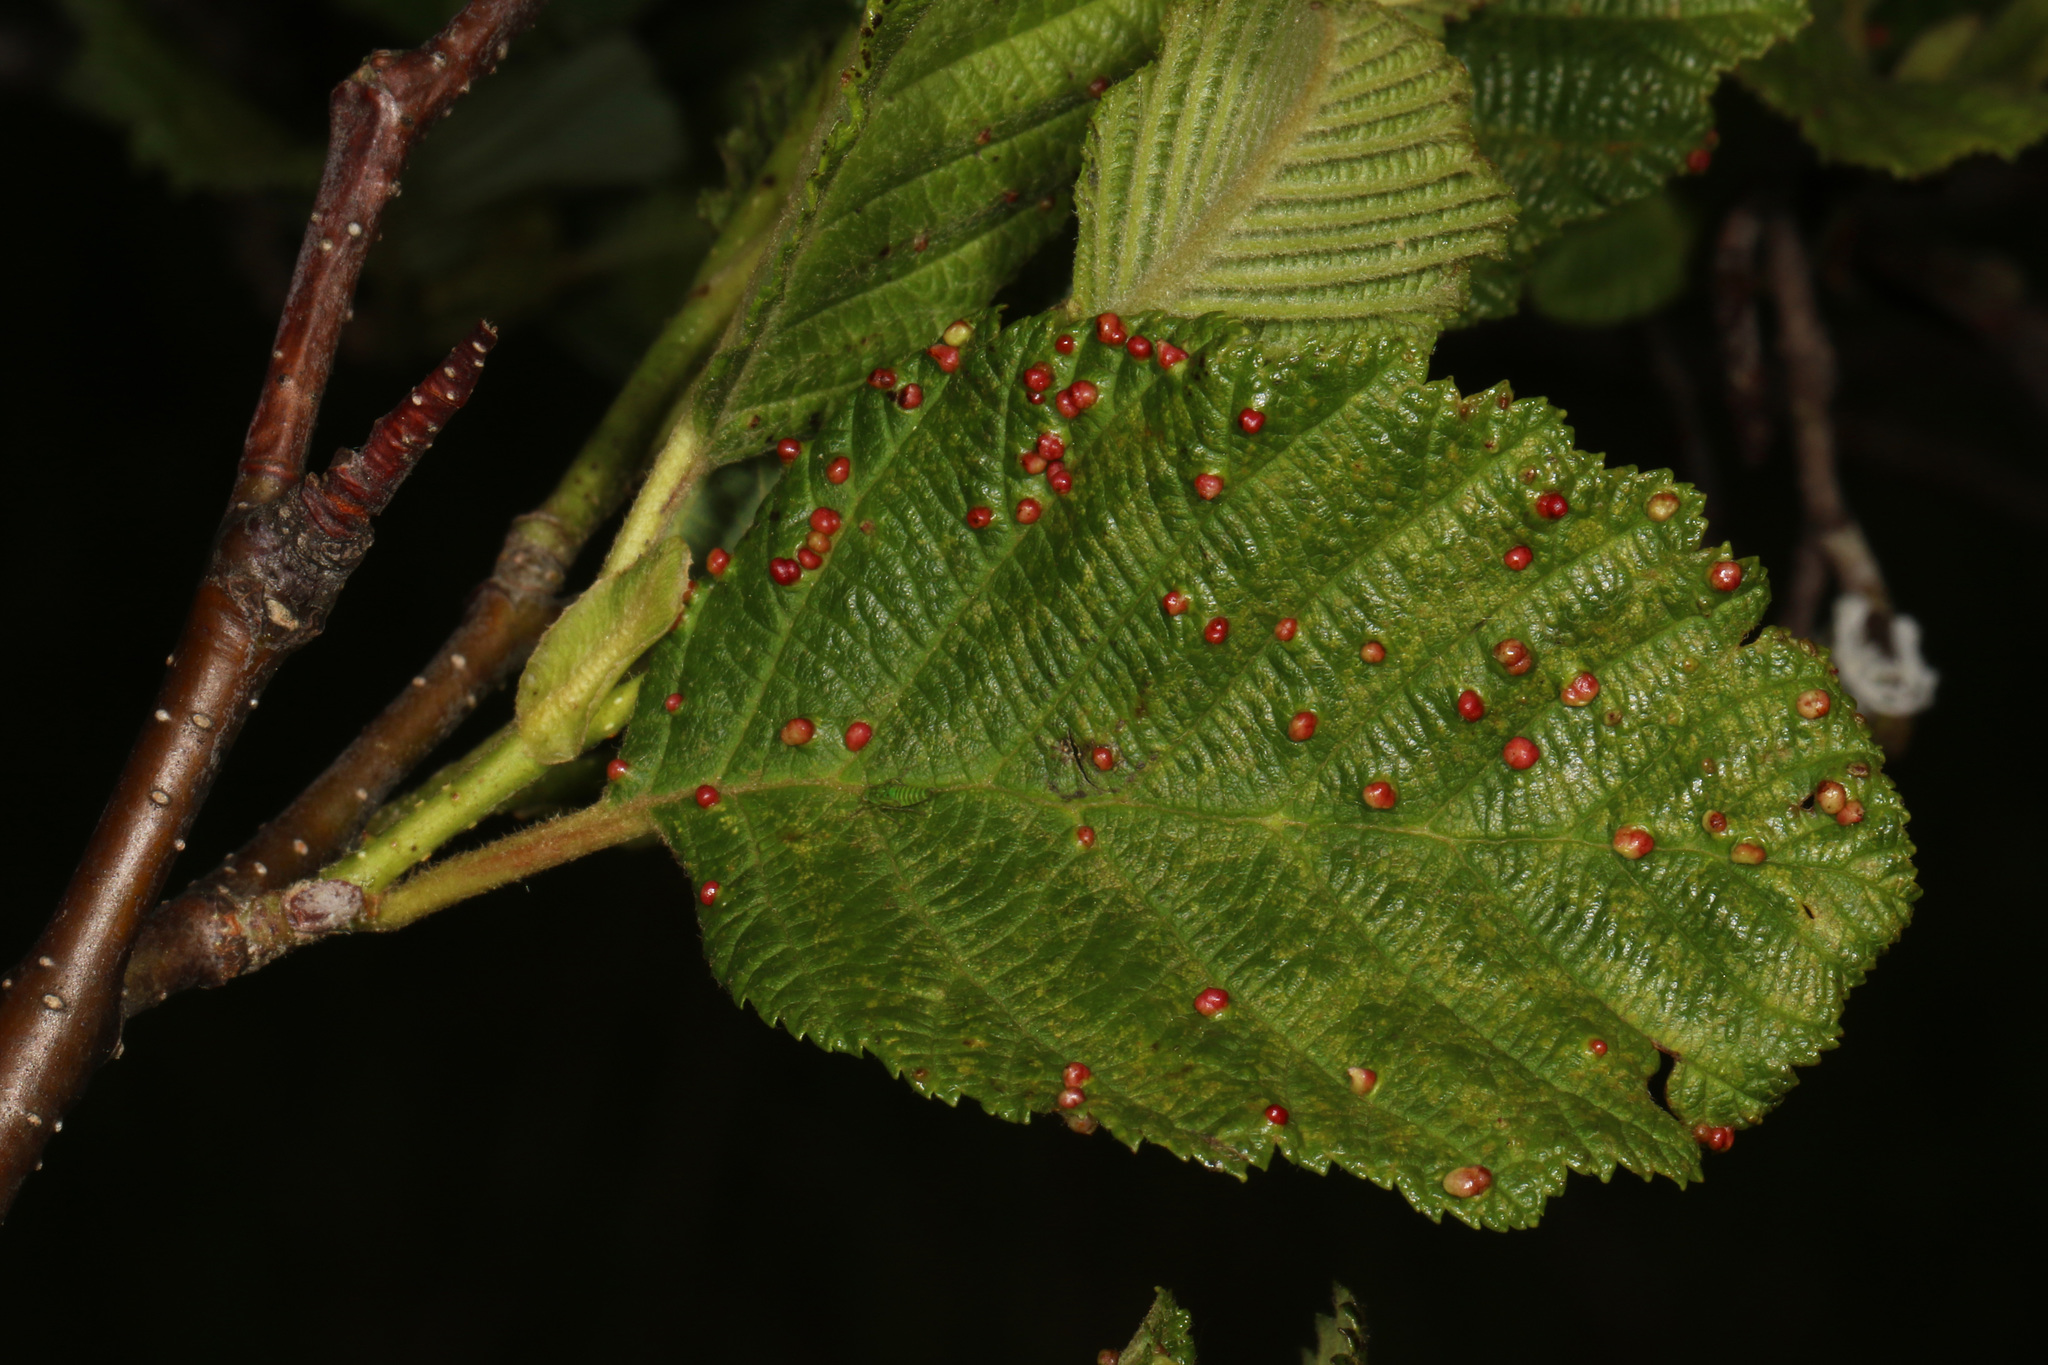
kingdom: Animalia
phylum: Arthropoda
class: Arachnida
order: Trombidiformes
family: Eriophyidae
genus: Eriophyes
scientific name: Eriophyes laevis
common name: Alder leaf gall mite
